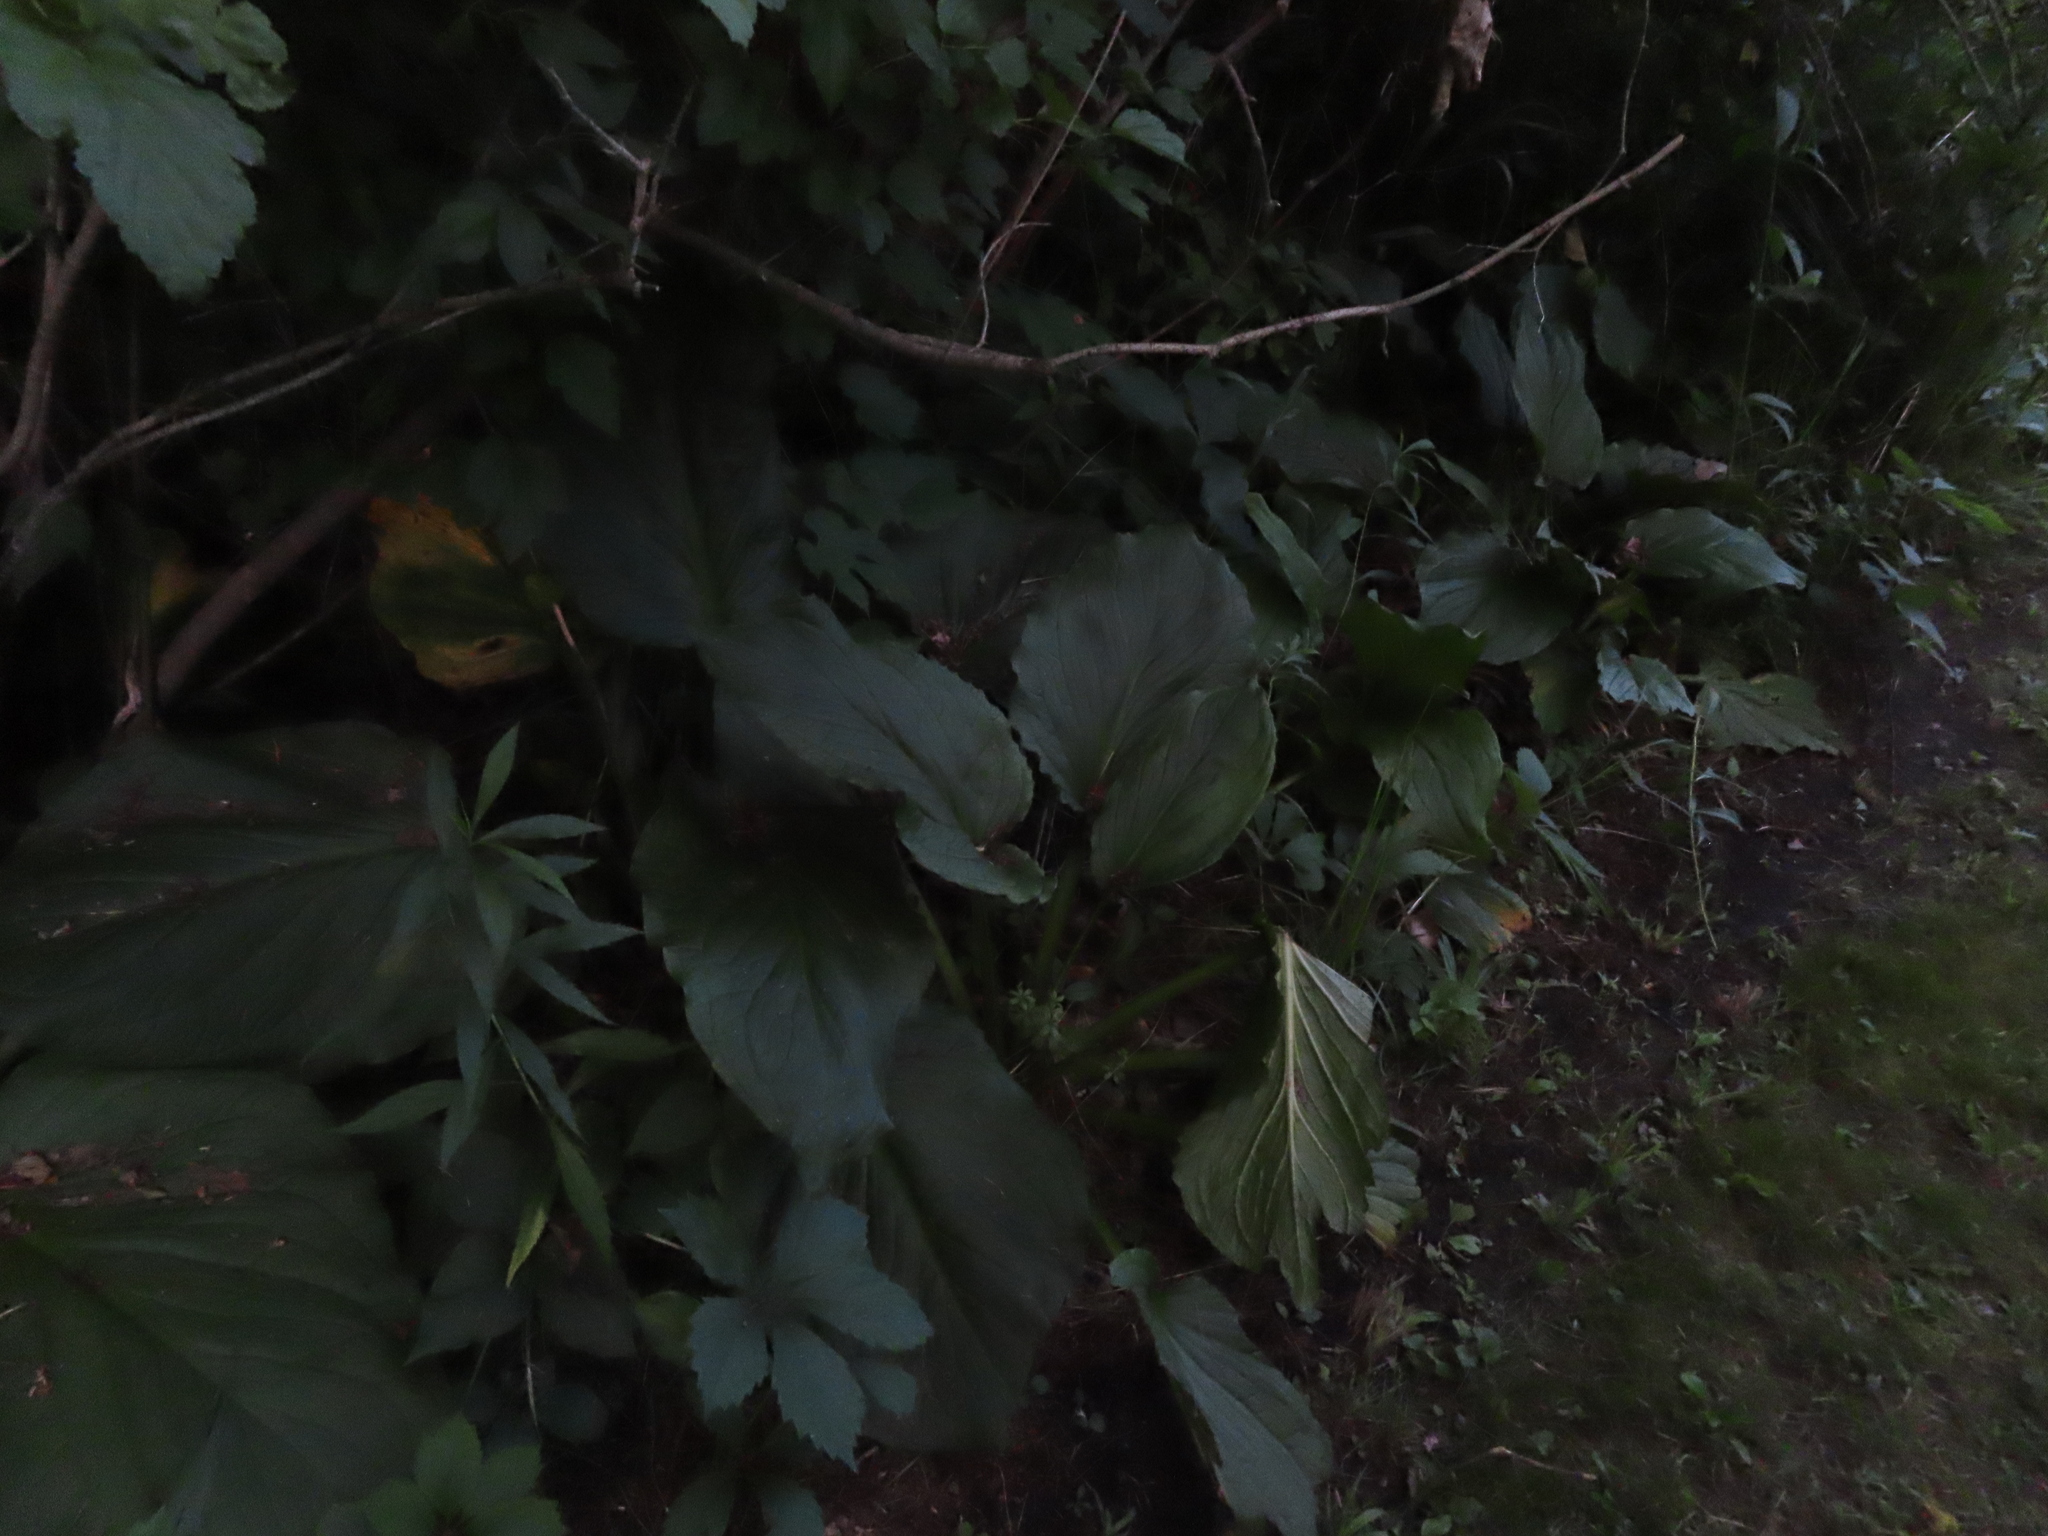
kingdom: Plantae
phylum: Tracheophyta
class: Liliopsida
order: Alismatales
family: Araceae
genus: Symplocarpus
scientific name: Symplocarpus foetidus
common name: Eastern skunk cabbage
